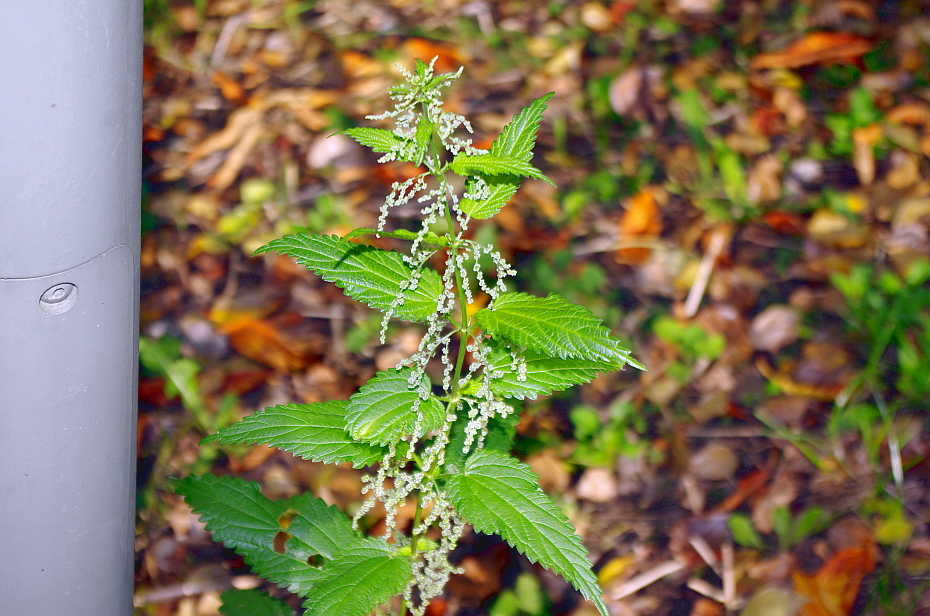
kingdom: Plantae
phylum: Tracheophyta
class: Magnoliopsida
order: Rosales
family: Urticaceae
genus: Urtica
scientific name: Urtica dioica
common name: Common nettle
